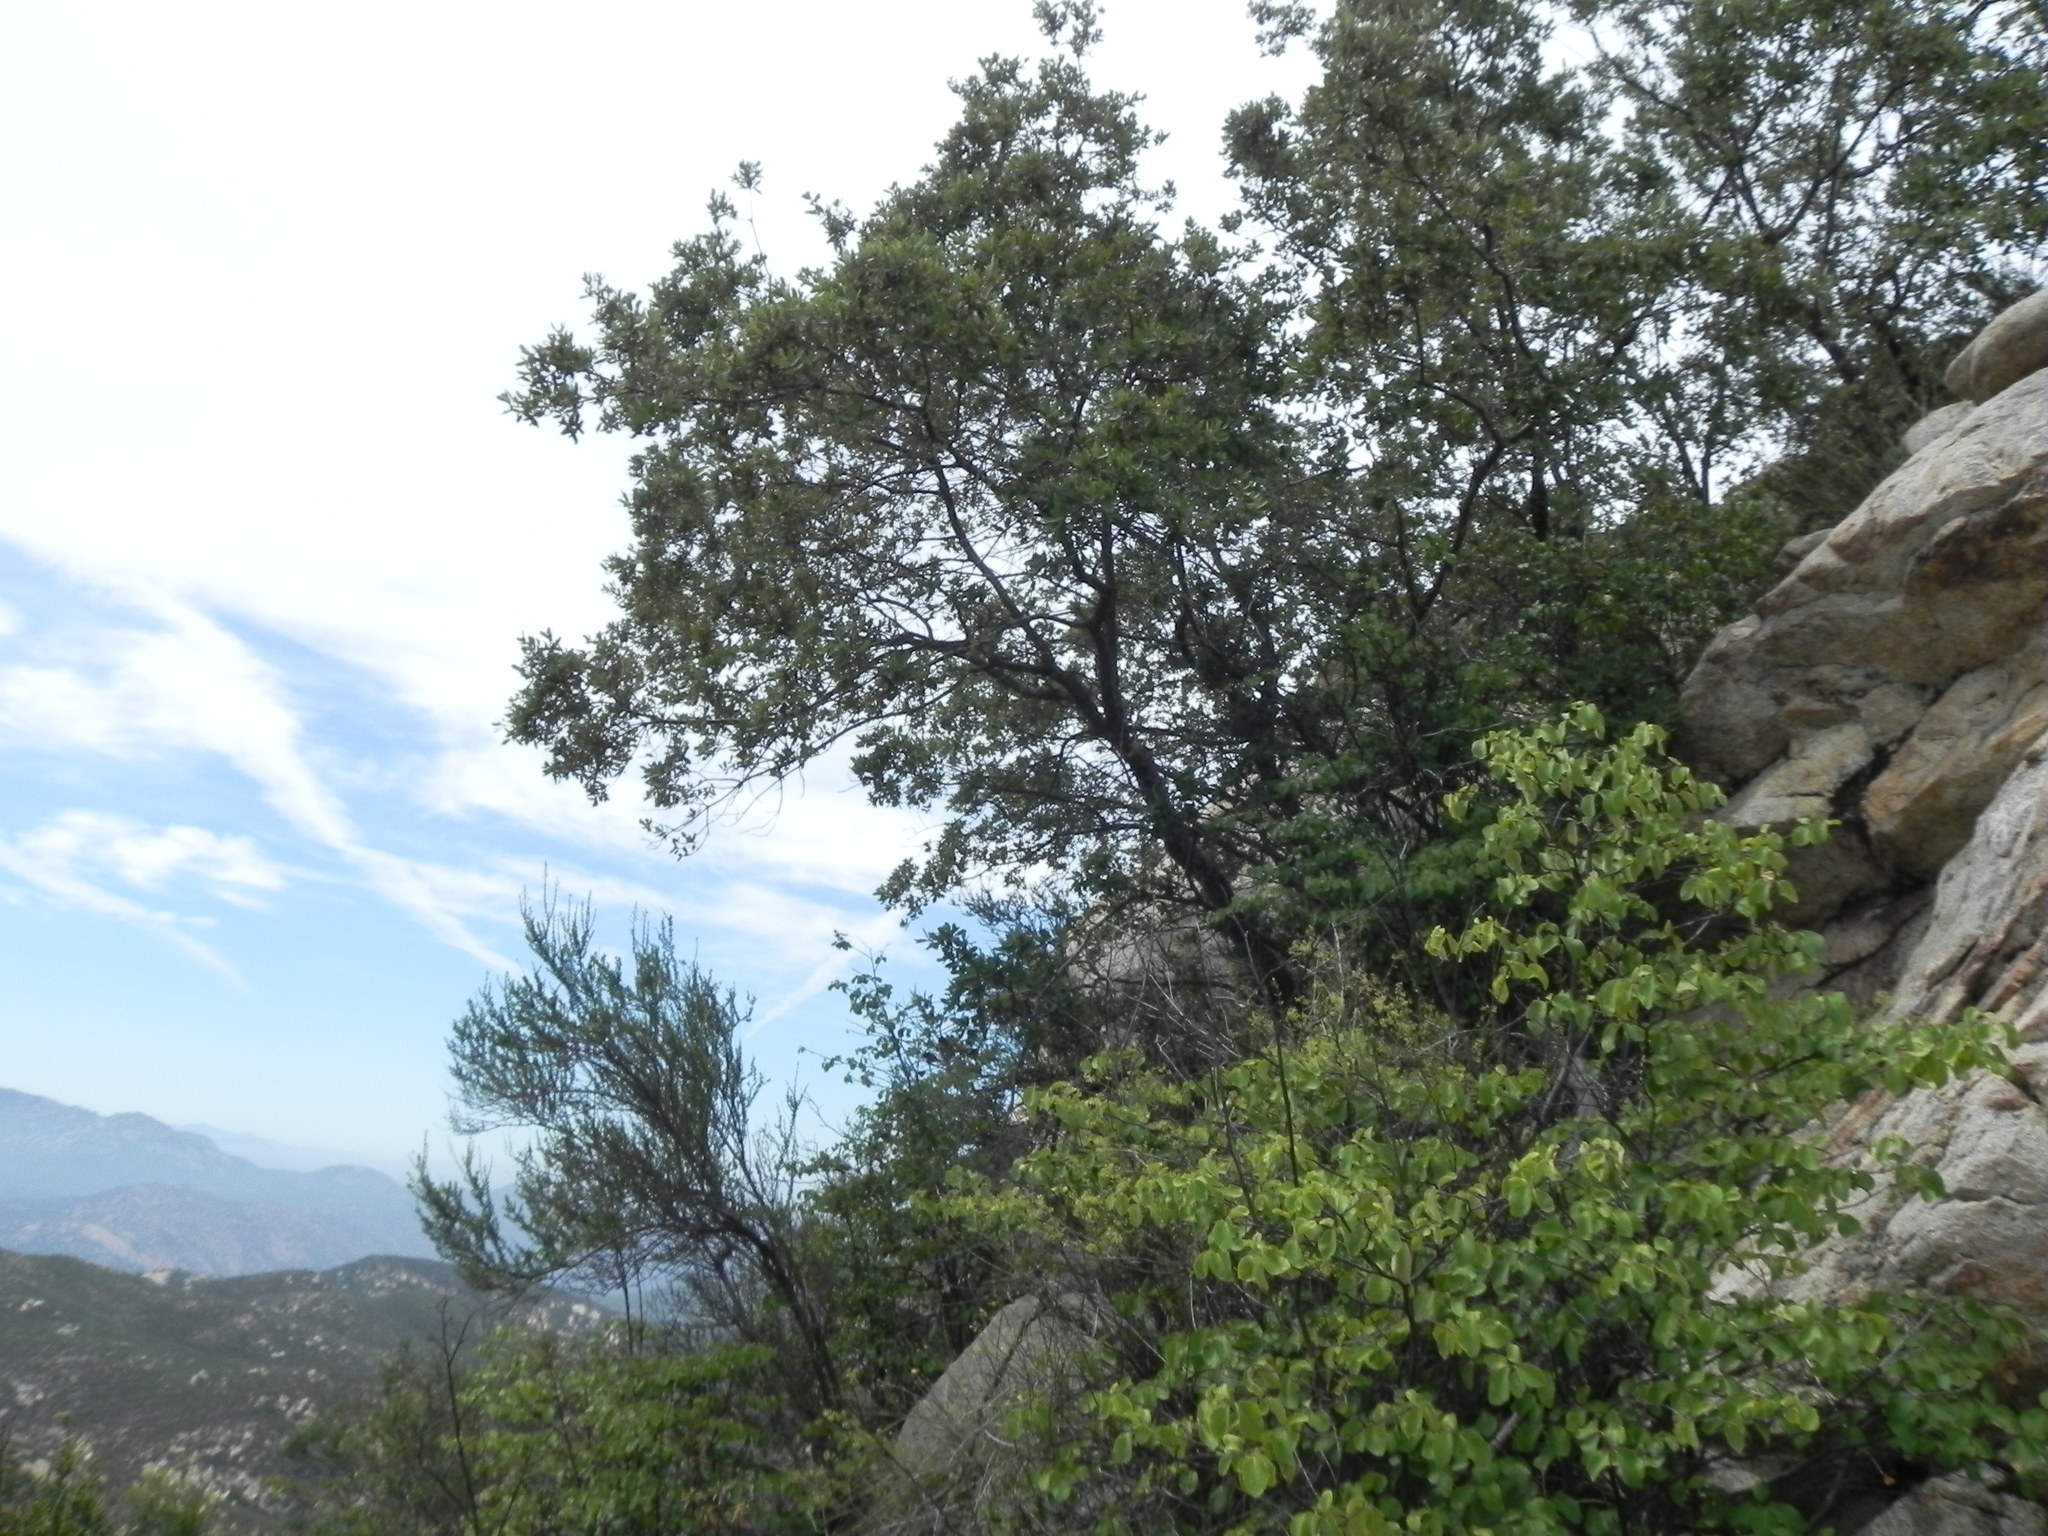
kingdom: Plantae
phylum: Tracheophyta
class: Magnoliopsida
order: Fagales
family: Fagaceae
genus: Quercus
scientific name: Quercus engelmannii
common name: Engelmann oak
